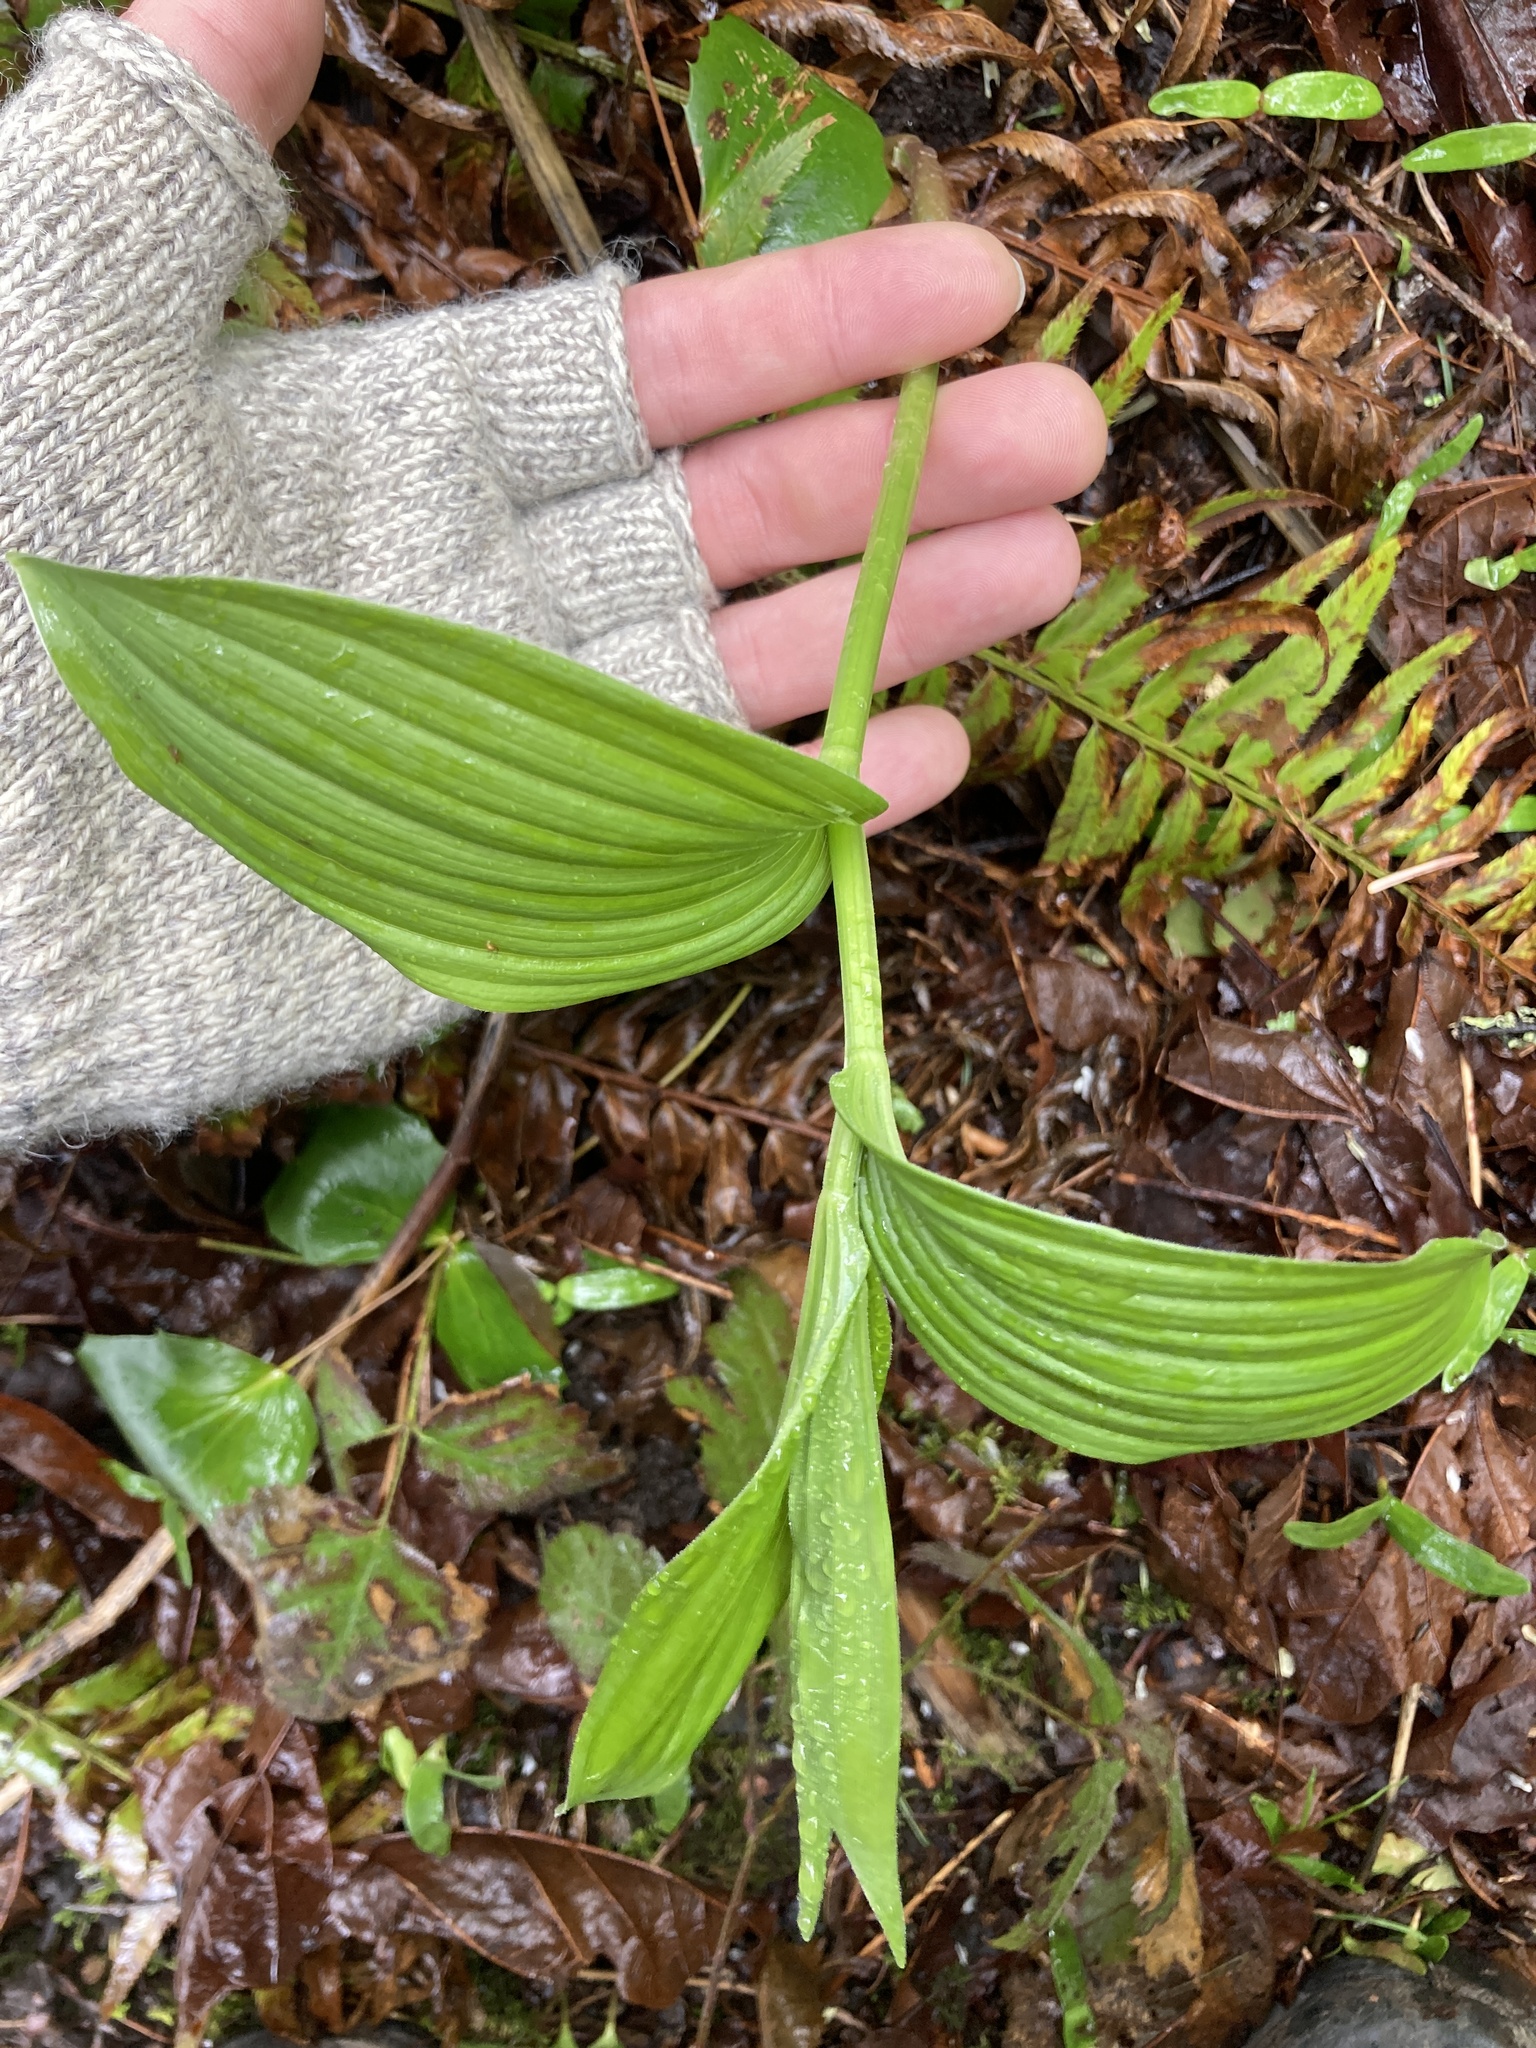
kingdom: Plantae
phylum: Tracheophyta
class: Liliopsida
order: Asparagales
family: Asparagaceae
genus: Maianthemum
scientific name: Maianthemum racemosum
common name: False spikenard
